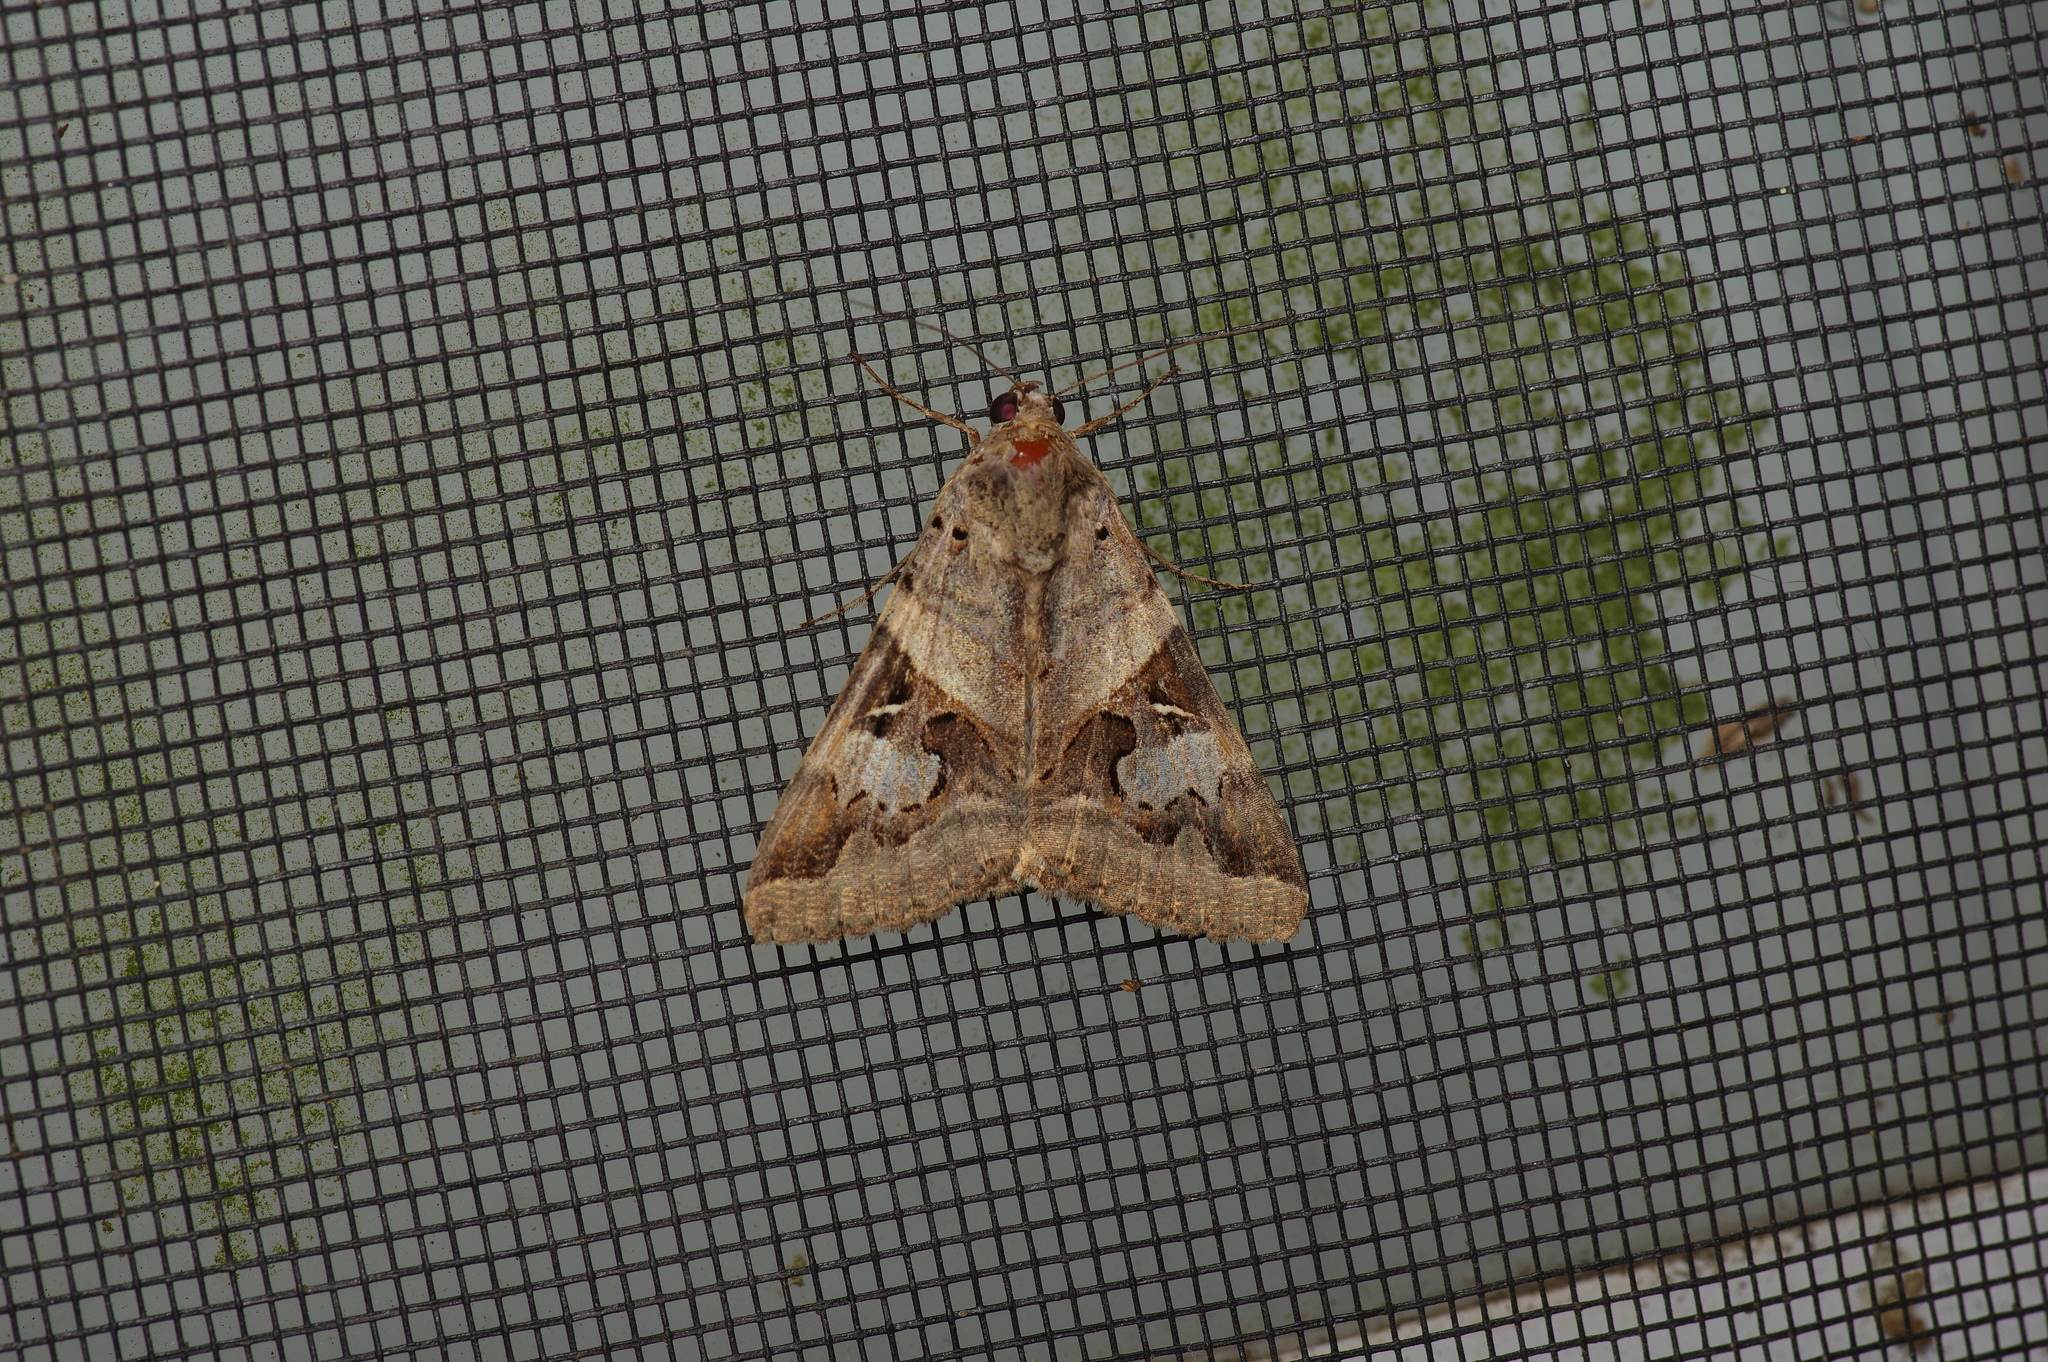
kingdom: Animalia
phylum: Arthropoda
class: Insecta
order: Lepidoptera
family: Erebidae
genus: Melipotis
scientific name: Melipotis indomita
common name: Moth
